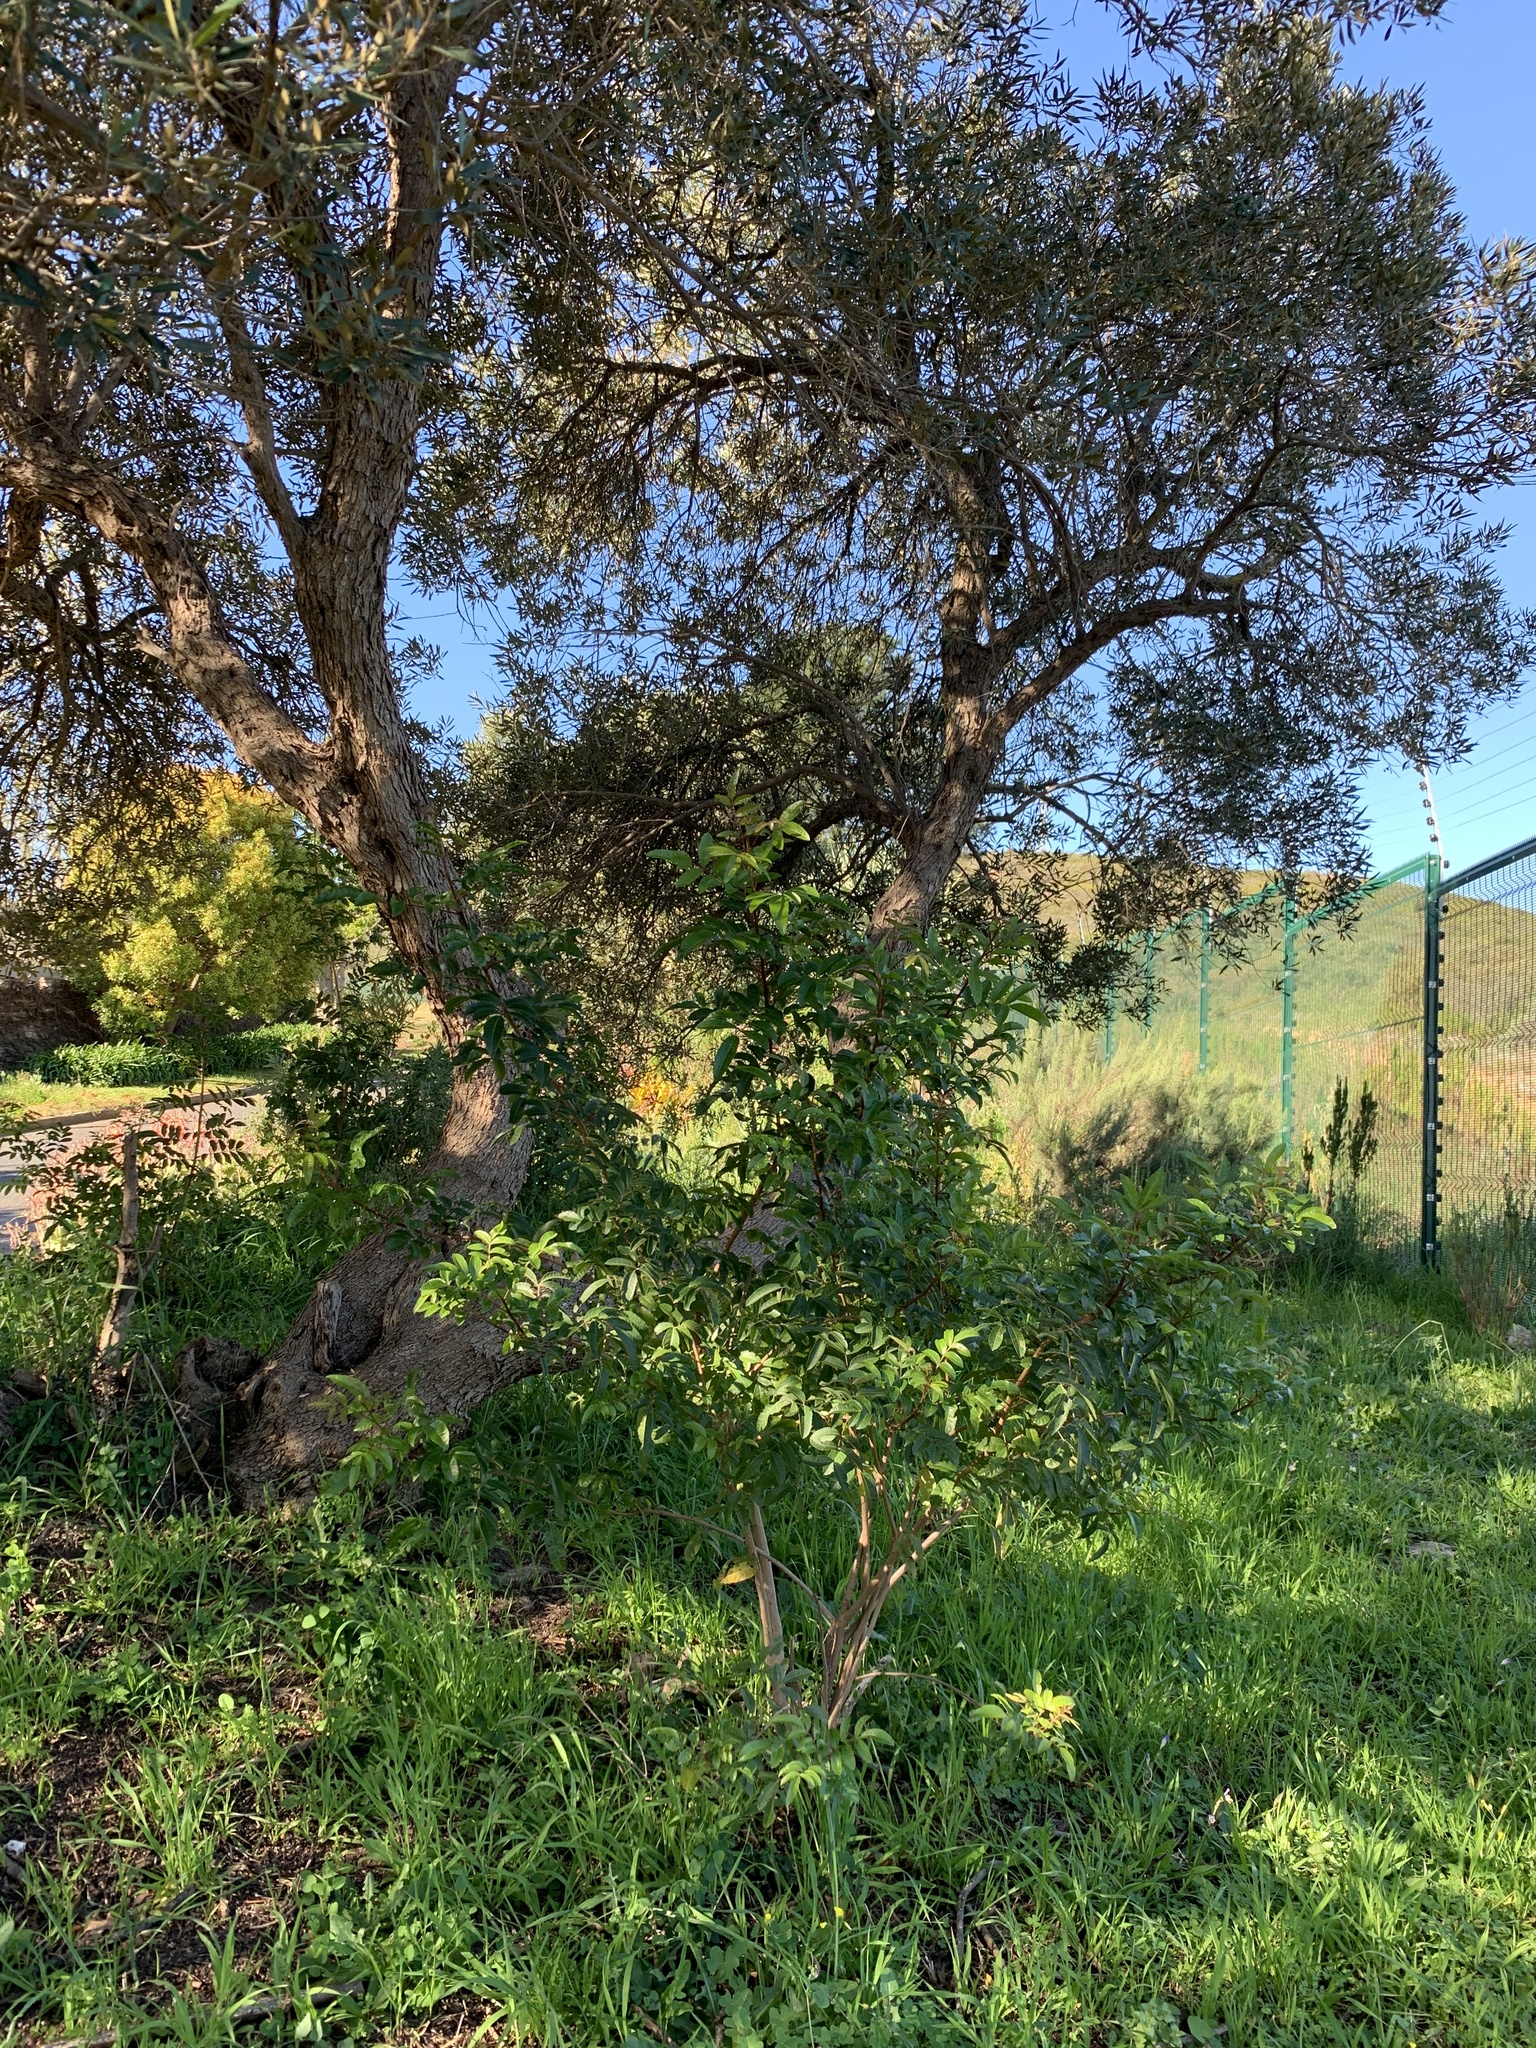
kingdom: Plantae
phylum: Tracheophyta
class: Magnoliopsida
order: Sapindales
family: Anacardiaceae
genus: Schinus
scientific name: Schinus terebinthifolia
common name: Brazilian peppertree
